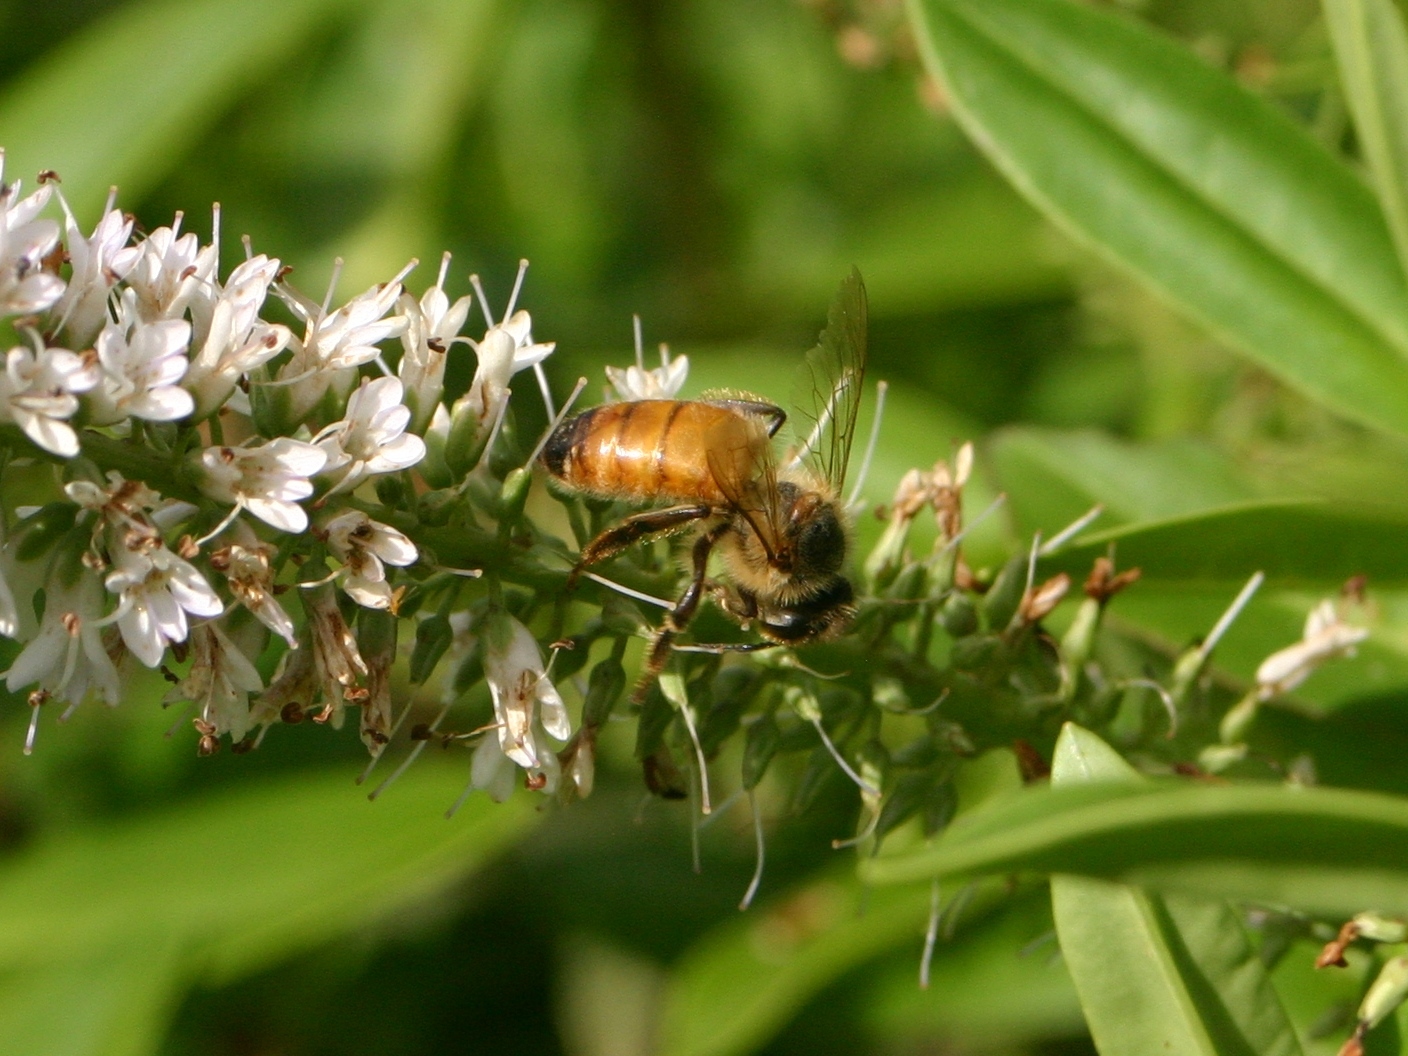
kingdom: Animalia
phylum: Arthropoda
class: Insecta
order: Hymenoptera
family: Apidae
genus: Apis
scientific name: Apis mellifera
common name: Honey bee
